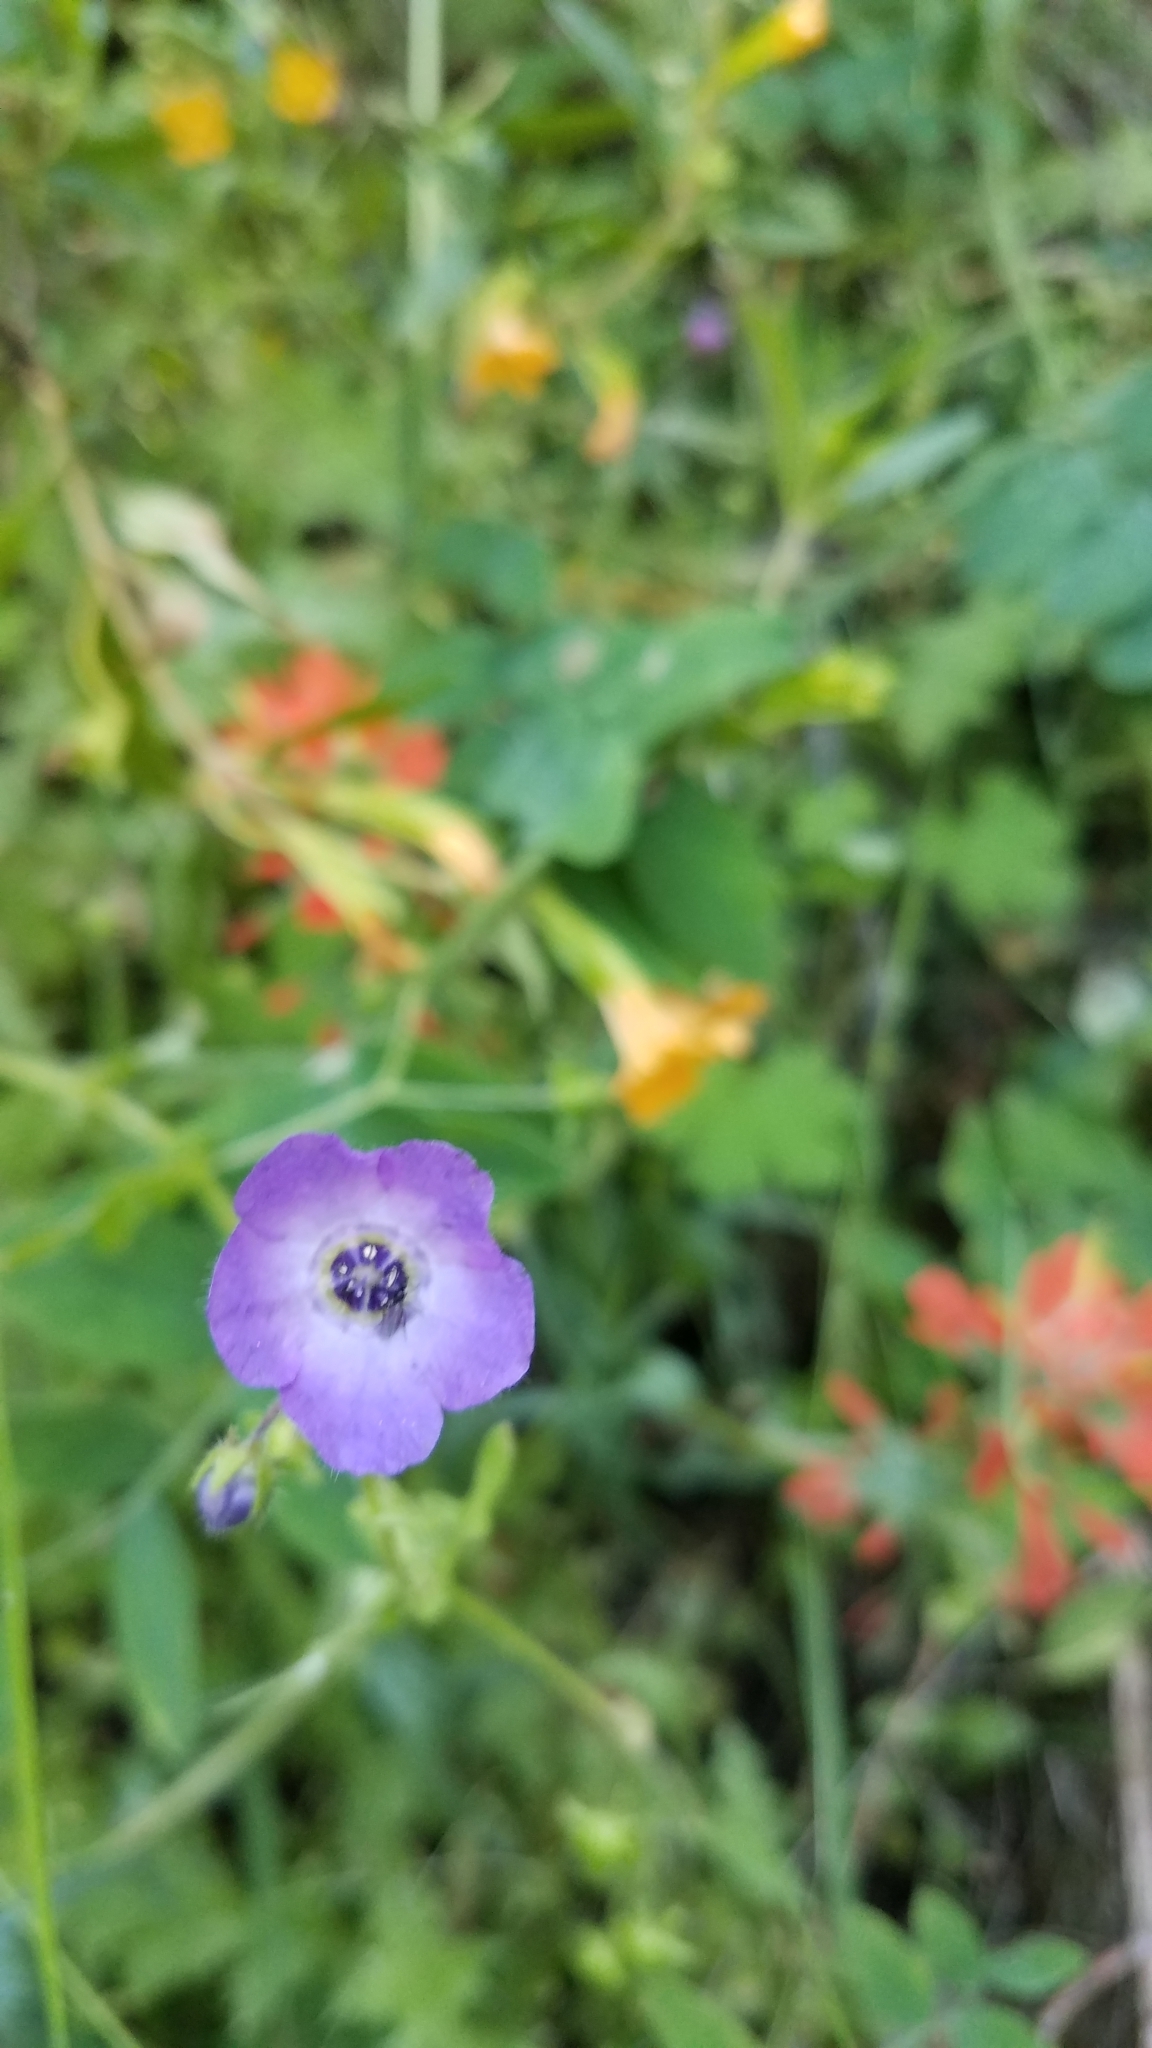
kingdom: Plantae
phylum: Tracheophyta
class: Magnoliopsida
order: Boraginales
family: Hydrophyllaceae
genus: Pholistoma
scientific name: Pholistoma auritum
